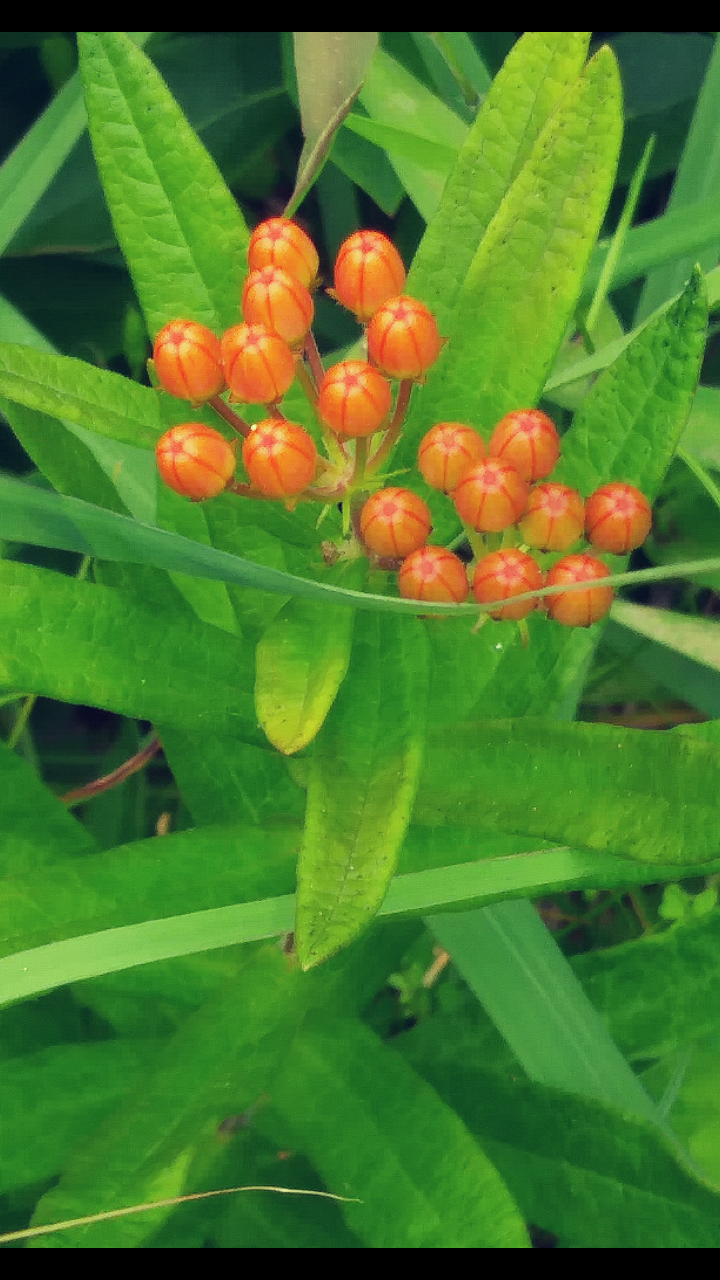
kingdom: Plantae
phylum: Tracheophyta
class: Magnoliopsida
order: Gentianales
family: Apocynaceae
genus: Asclepias
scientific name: Asclepias tuberosa
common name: Butterfly milkweed
